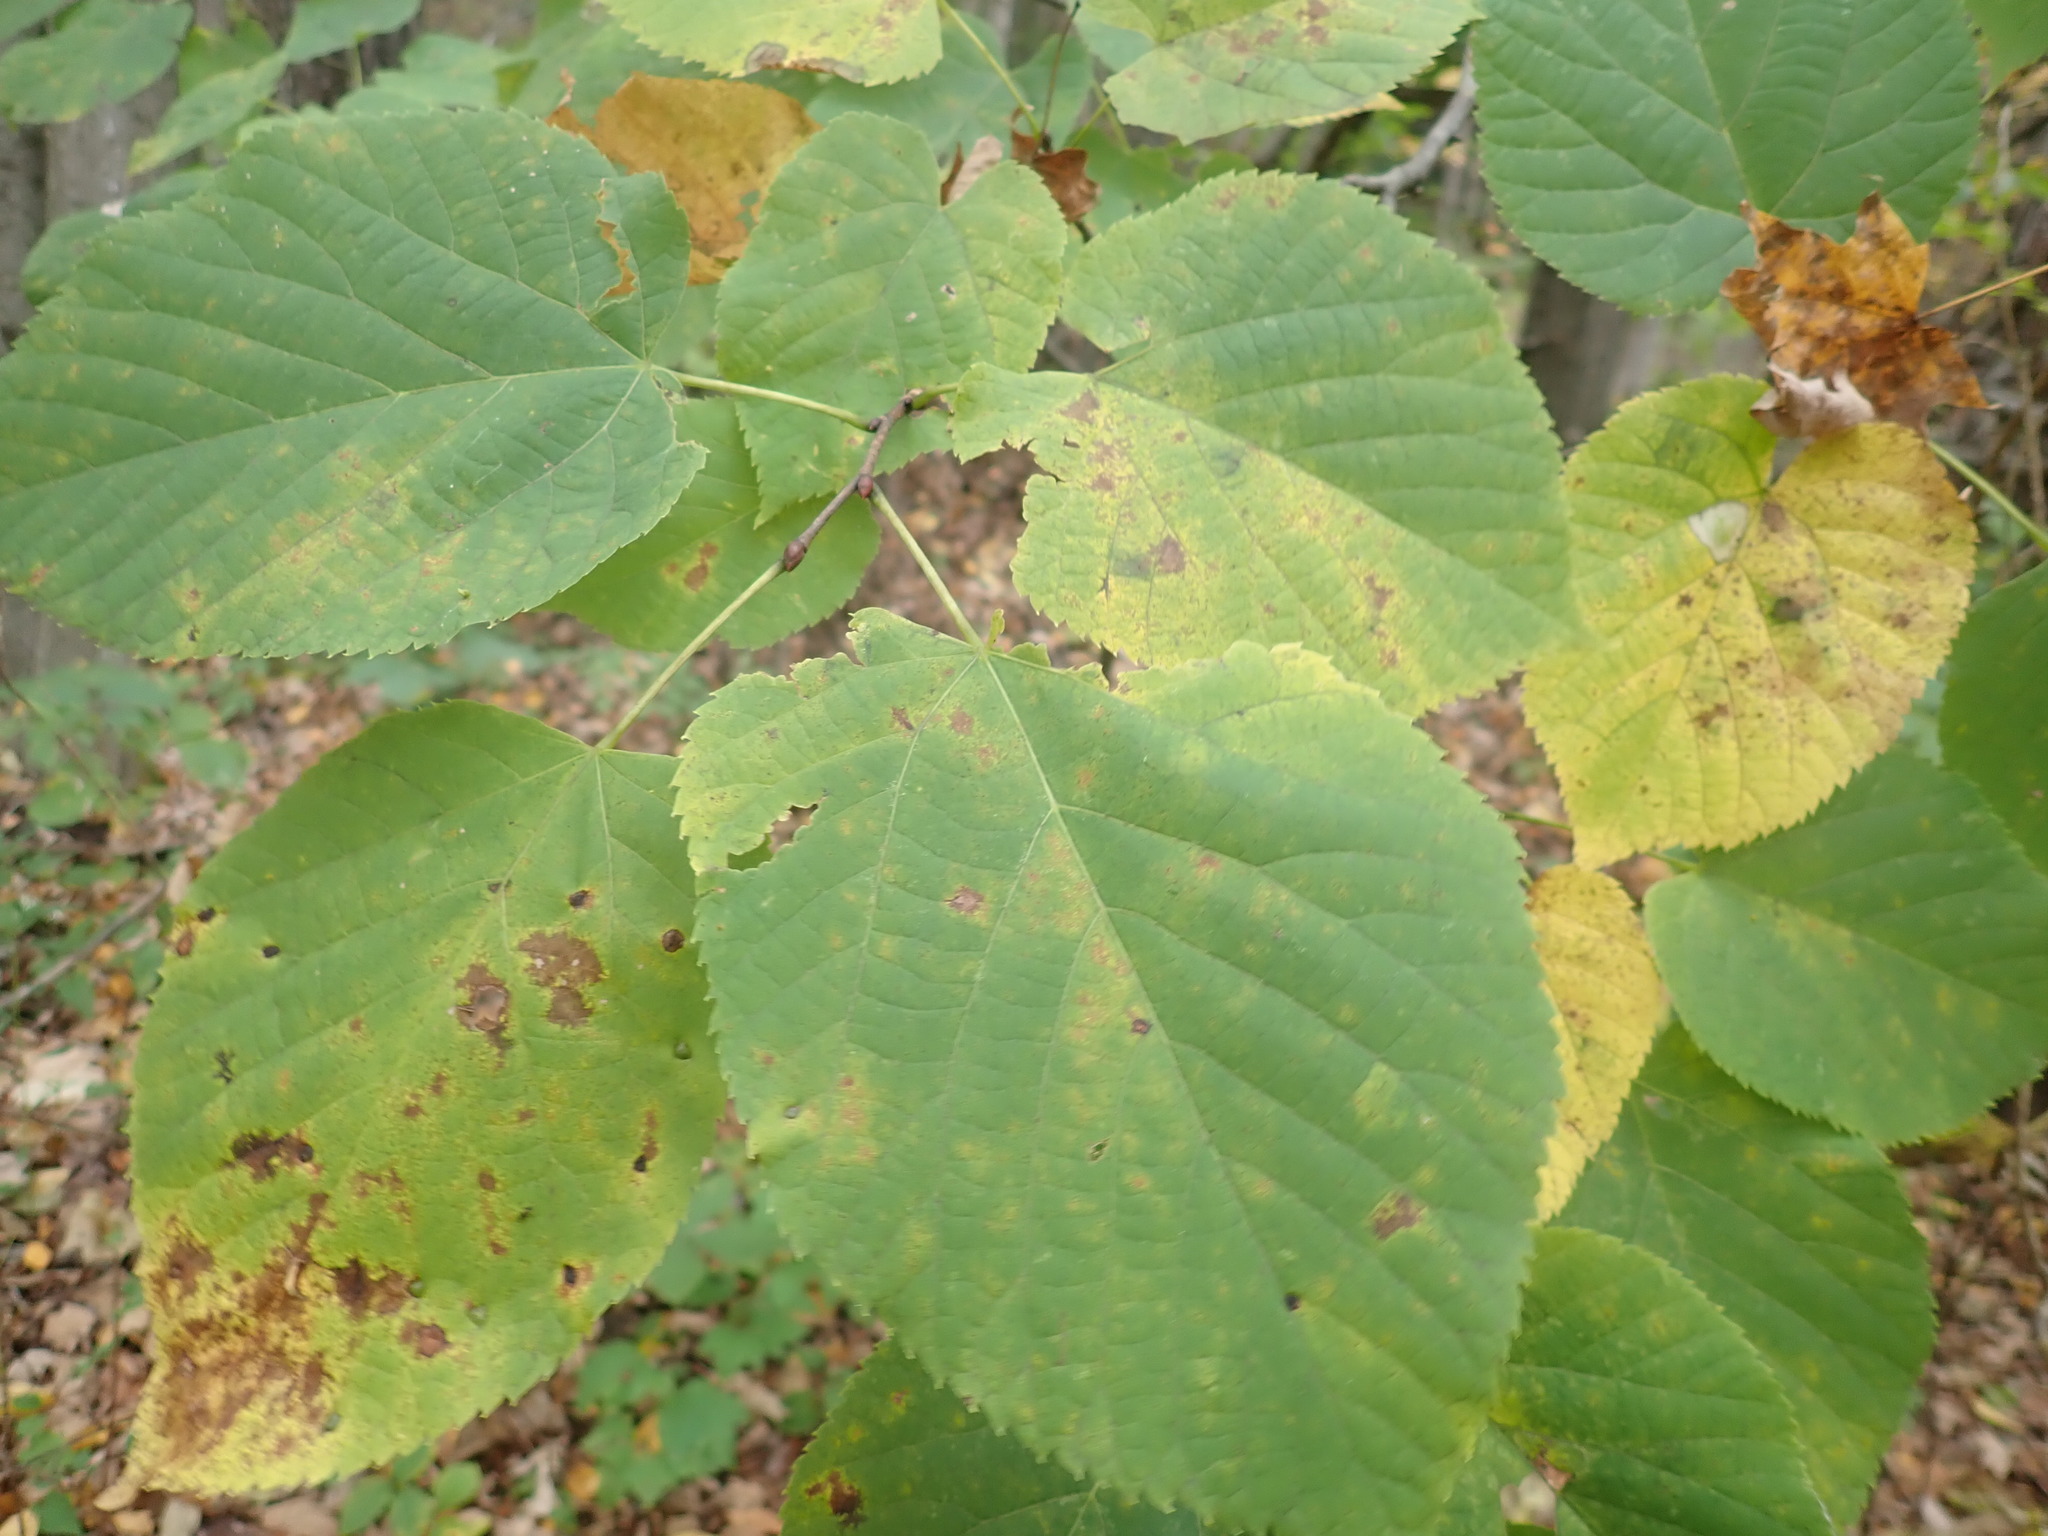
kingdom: Plantae
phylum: Tracheophyta
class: Magnoliopsida
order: Malvales
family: Malvaceae
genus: Tilia
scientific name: Tilia americana
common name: Basswood
